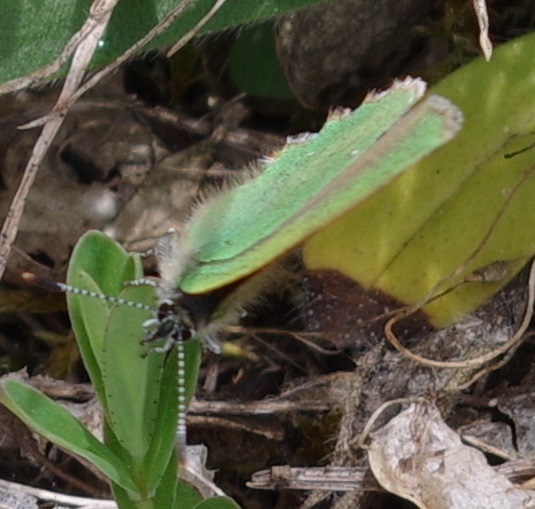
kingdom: Animalia
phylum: Arthropoda
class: Insecta
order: Lepidoptera
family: Lycaenidae
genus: Callophrys
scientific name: Callophrys rubi
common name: Green hairstreak
